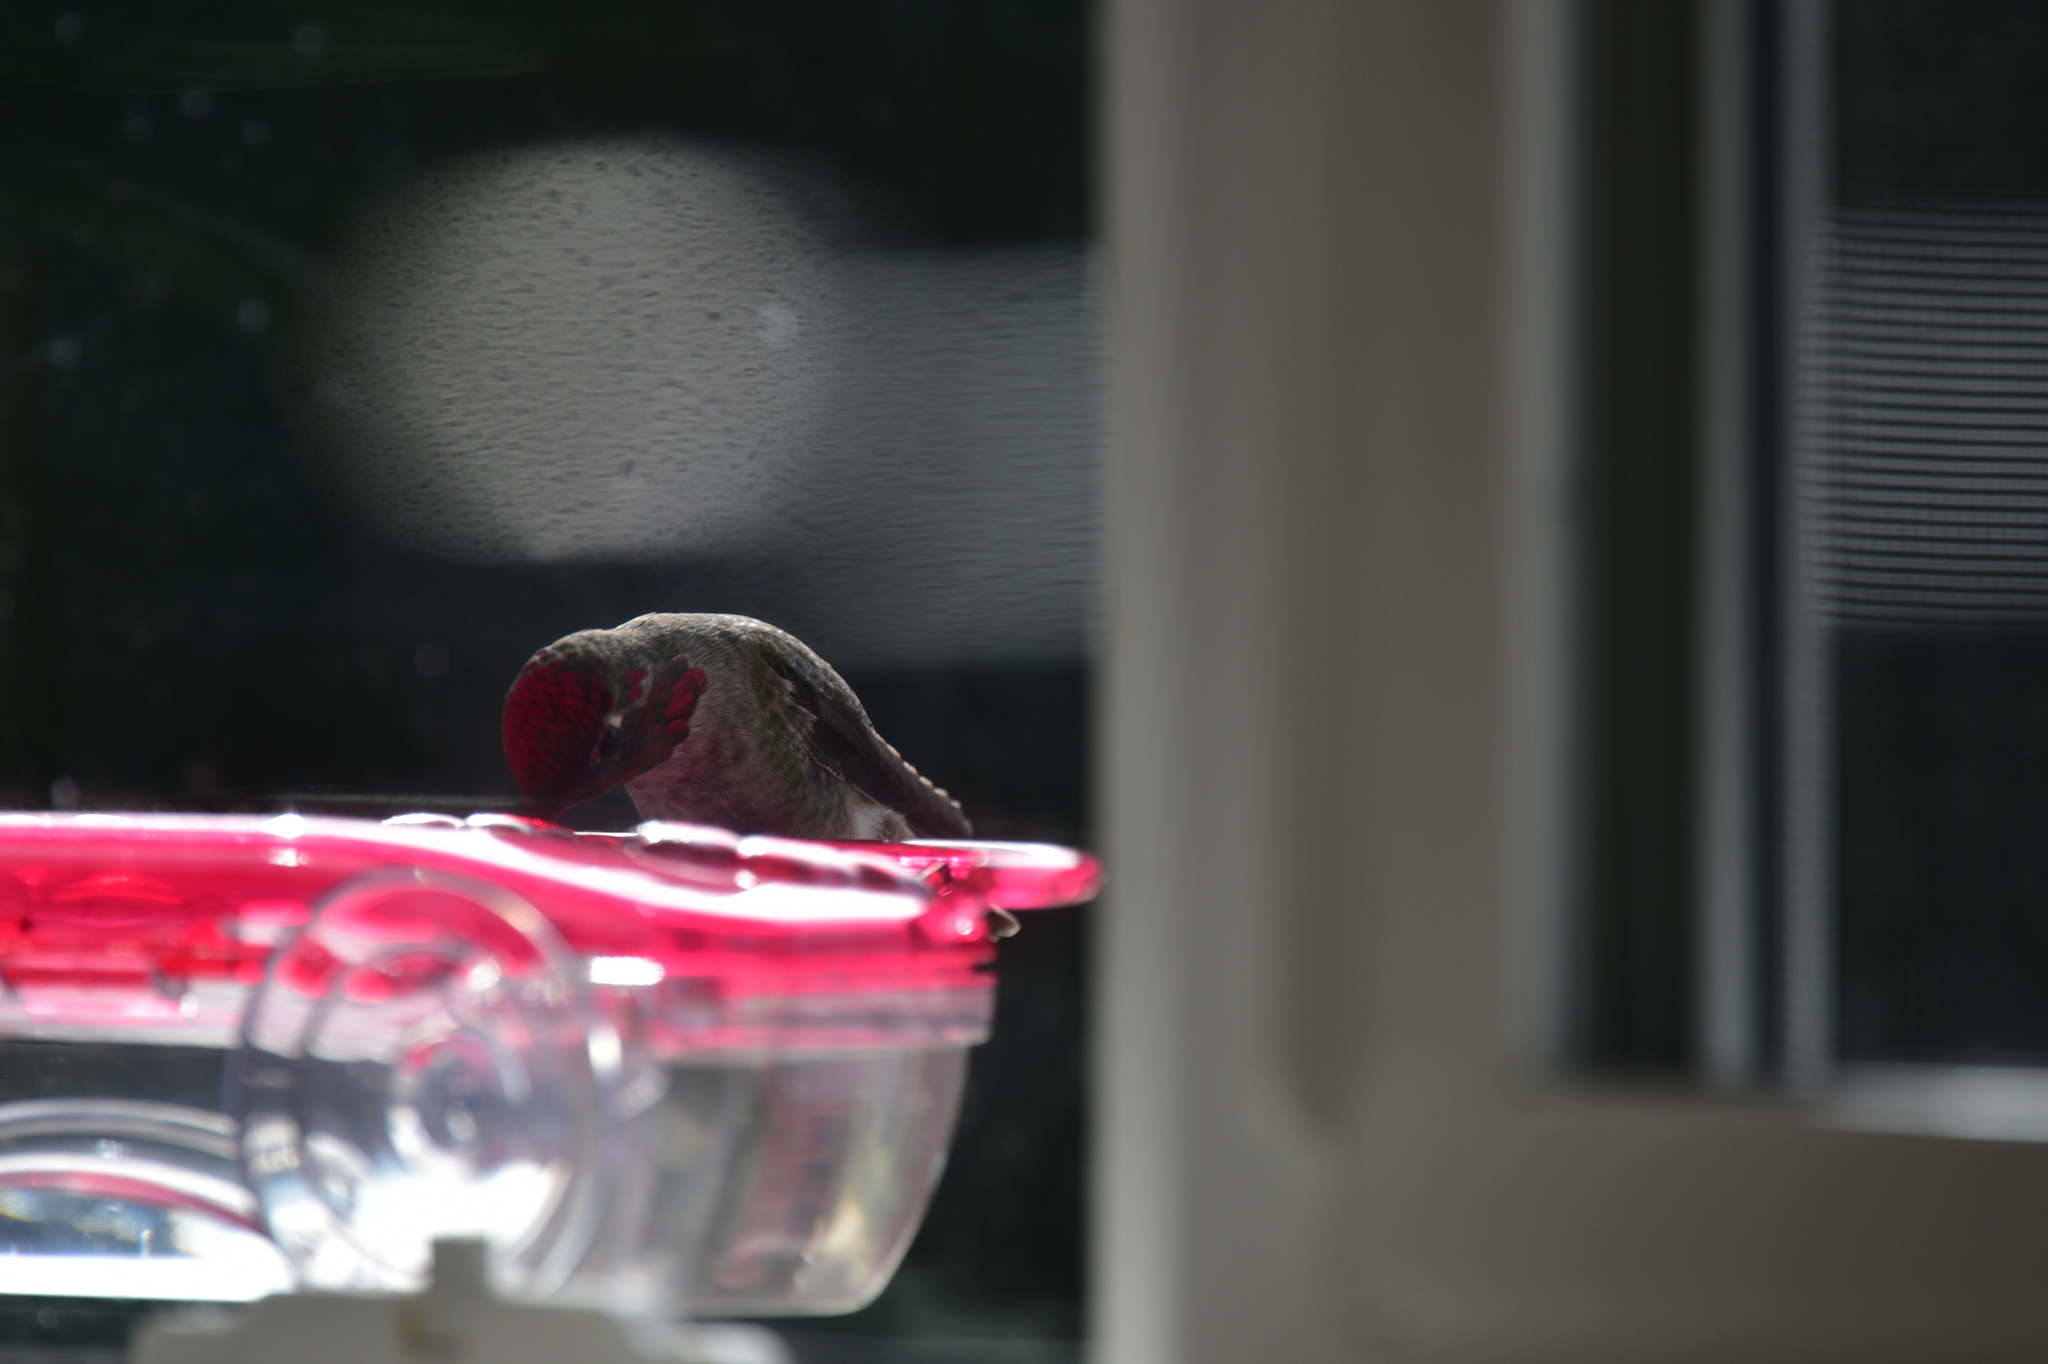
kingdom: Animalia
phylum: Chordata
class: Aves
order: Apodiformes
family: Trochilidae
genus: Calypte
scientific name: Calypte anna
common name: Anna's hummingbird
